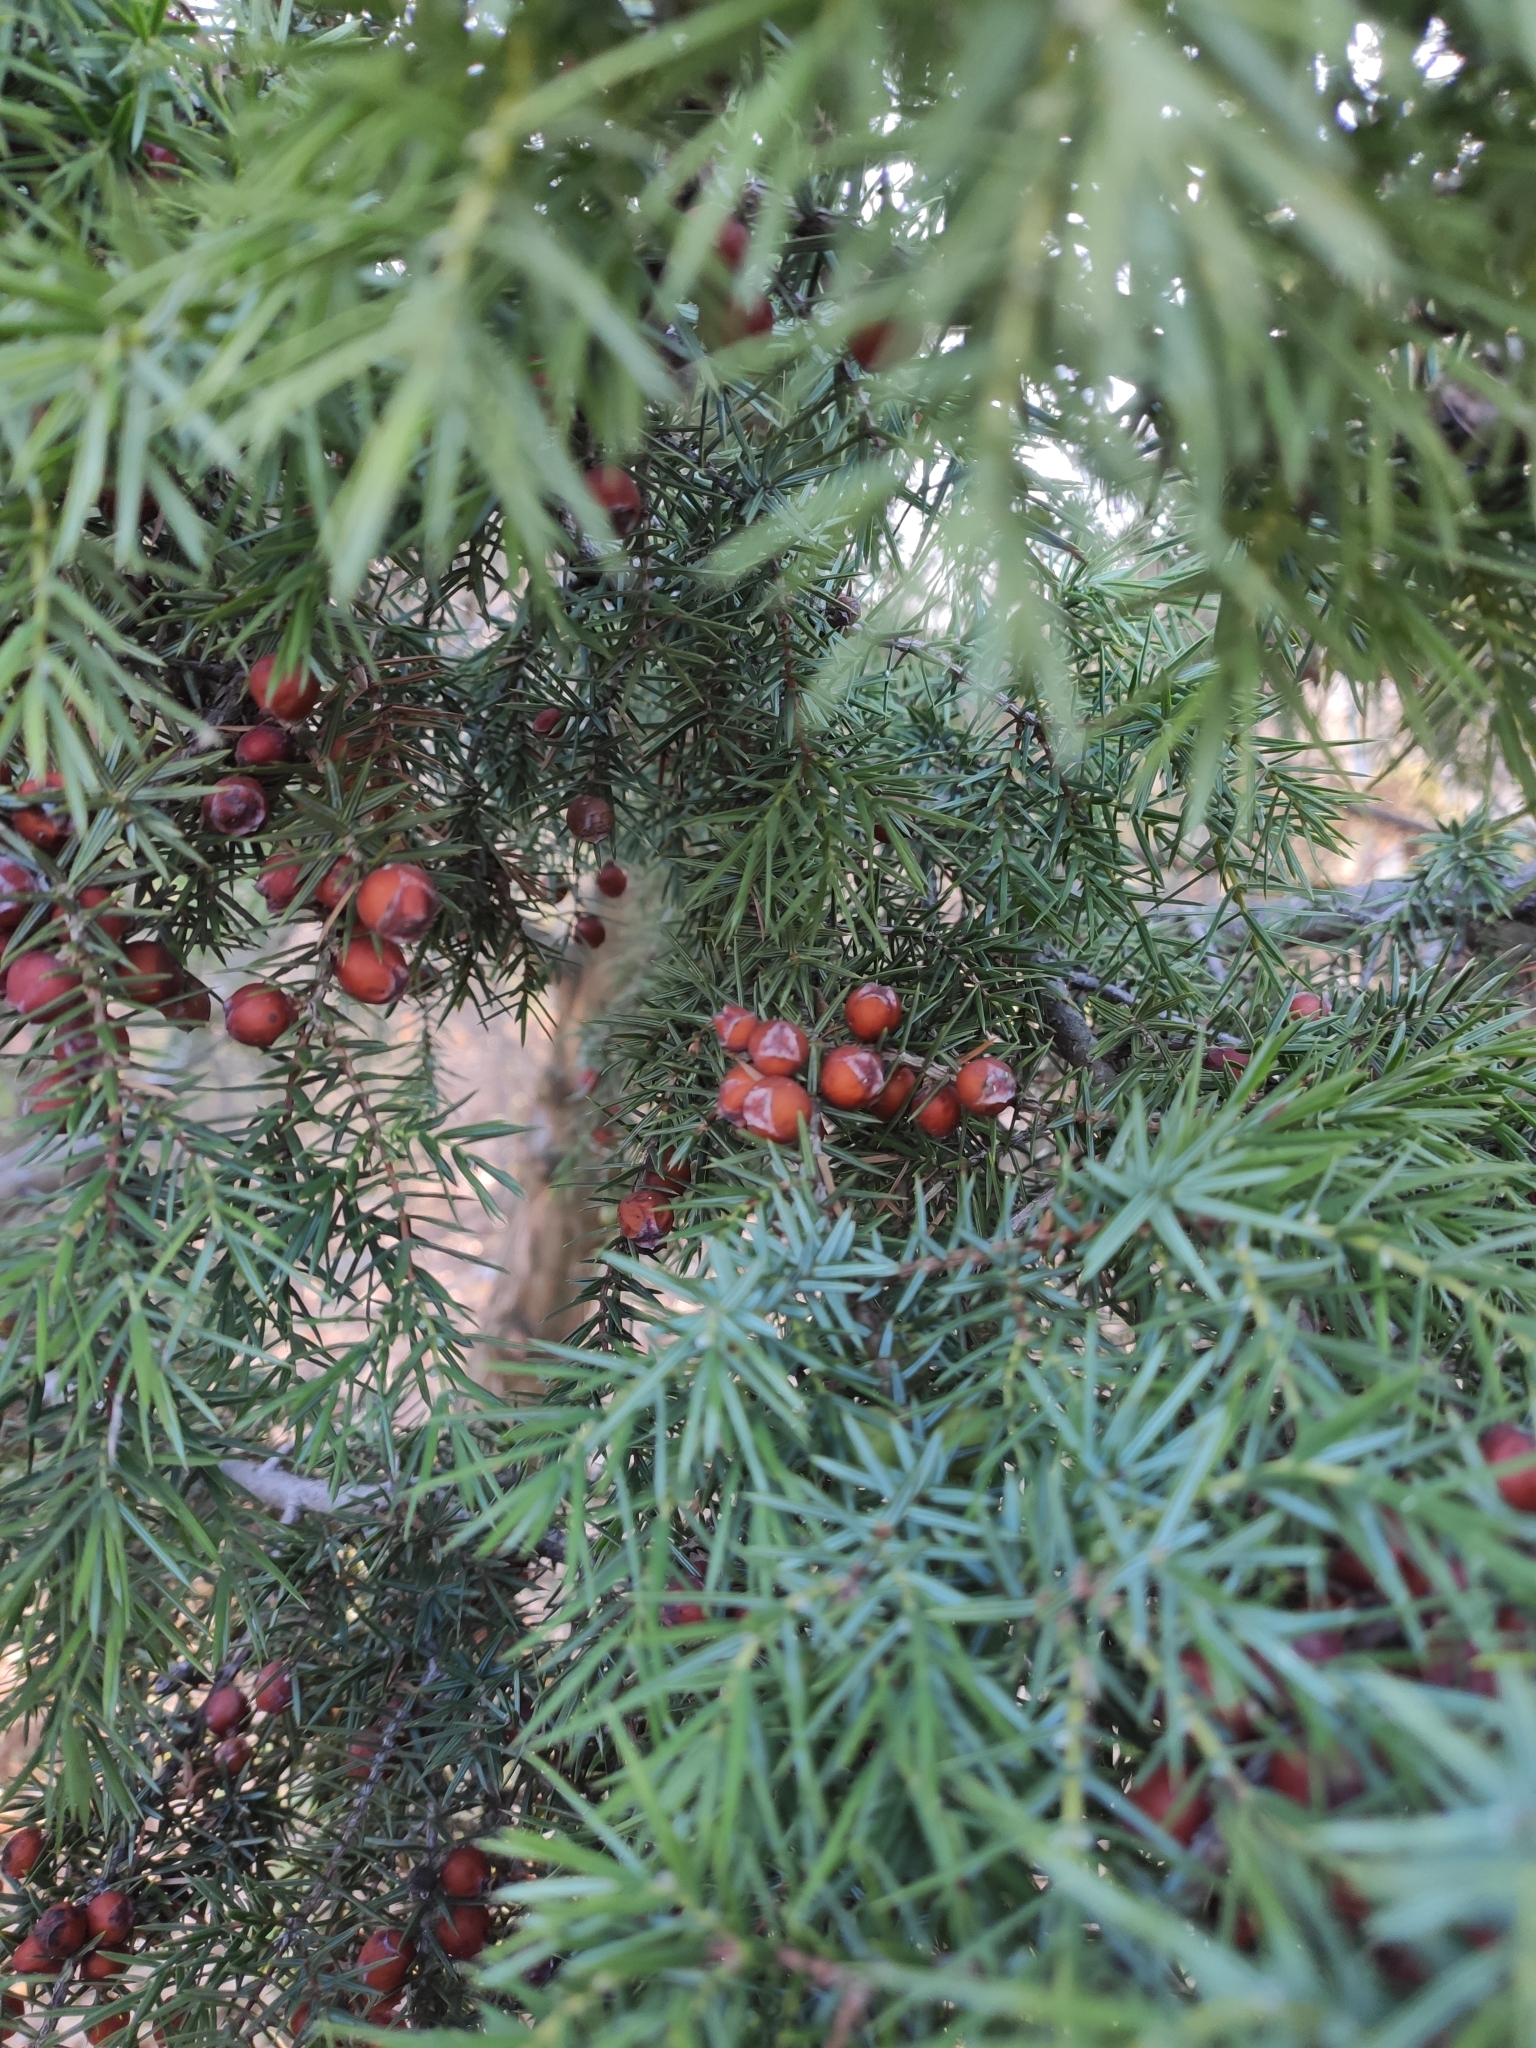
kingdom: Plantae
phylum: Tracheophyta
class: Pinopsida
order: Pinales
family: Cupressaceae
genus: Juniperus
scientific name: Juniperus oxycedrus
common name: Prickly juniper
